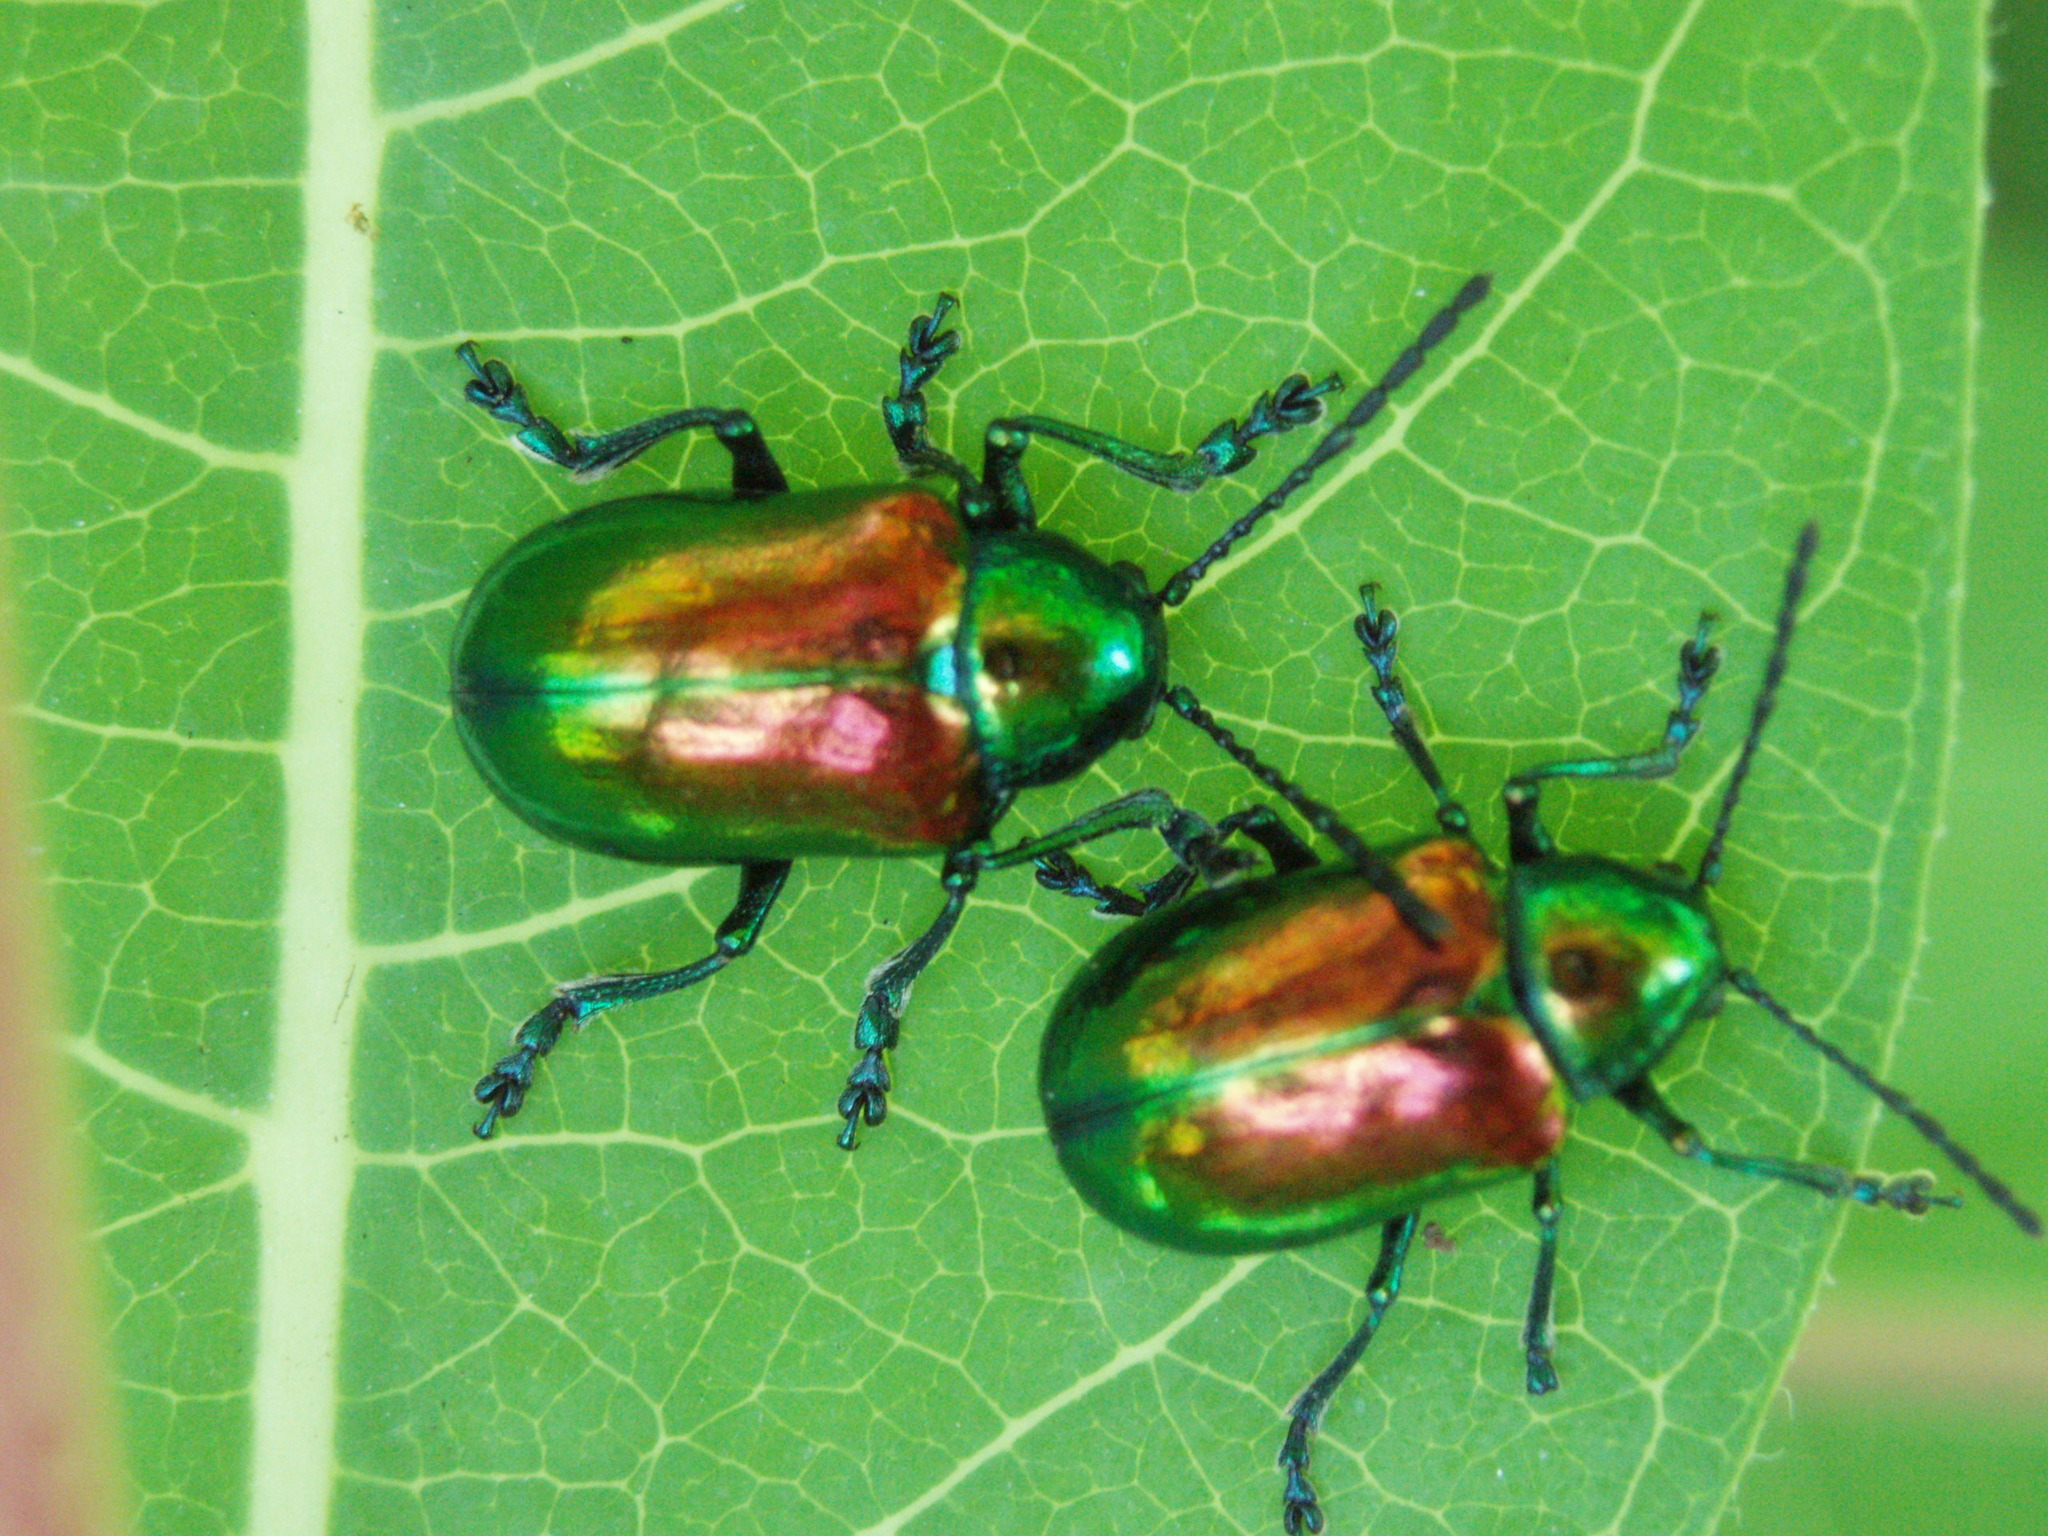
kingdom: Animalia
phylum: Arthropoda
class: Insecta
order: Coleoptera
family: Chrysomelidae
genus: Chrysochus
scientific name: Chrysochus auratus
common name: Dogbane leaf beetle
